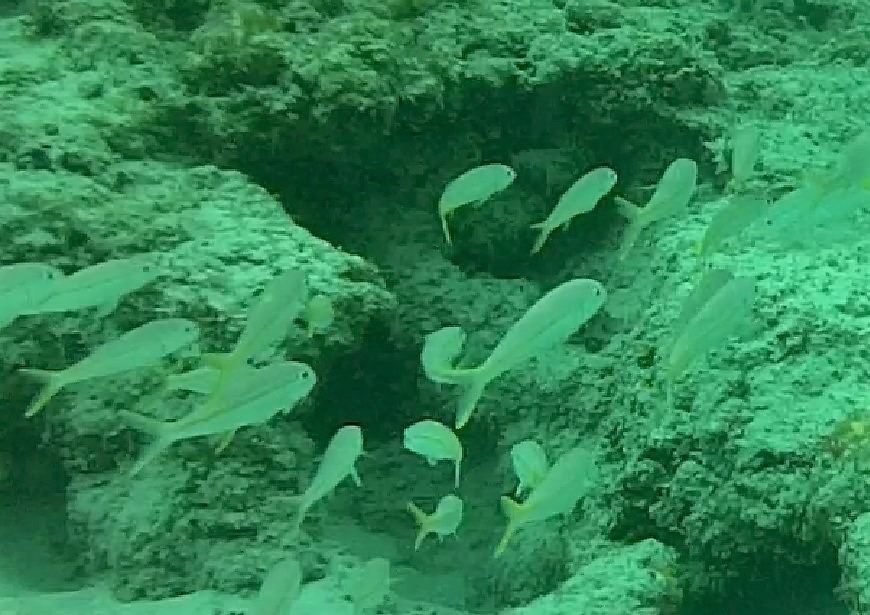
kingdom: Animalia
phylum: Chordata
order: Perciformes
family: Mullidae
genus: Mulloidichthys
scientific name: Mulloidichthys martinicus
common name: Yellow goatfish
